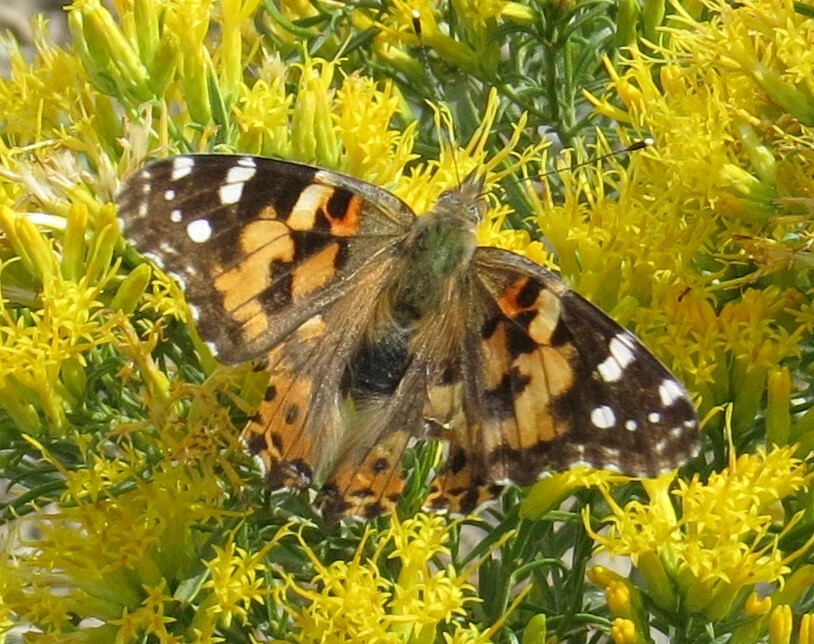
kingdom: Animalia
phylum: Arthropoda
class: Insecta
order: Lepidoptera
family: Nymphalidae
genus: Vanessa
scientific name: Vanessa cardui
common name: Painted lady
